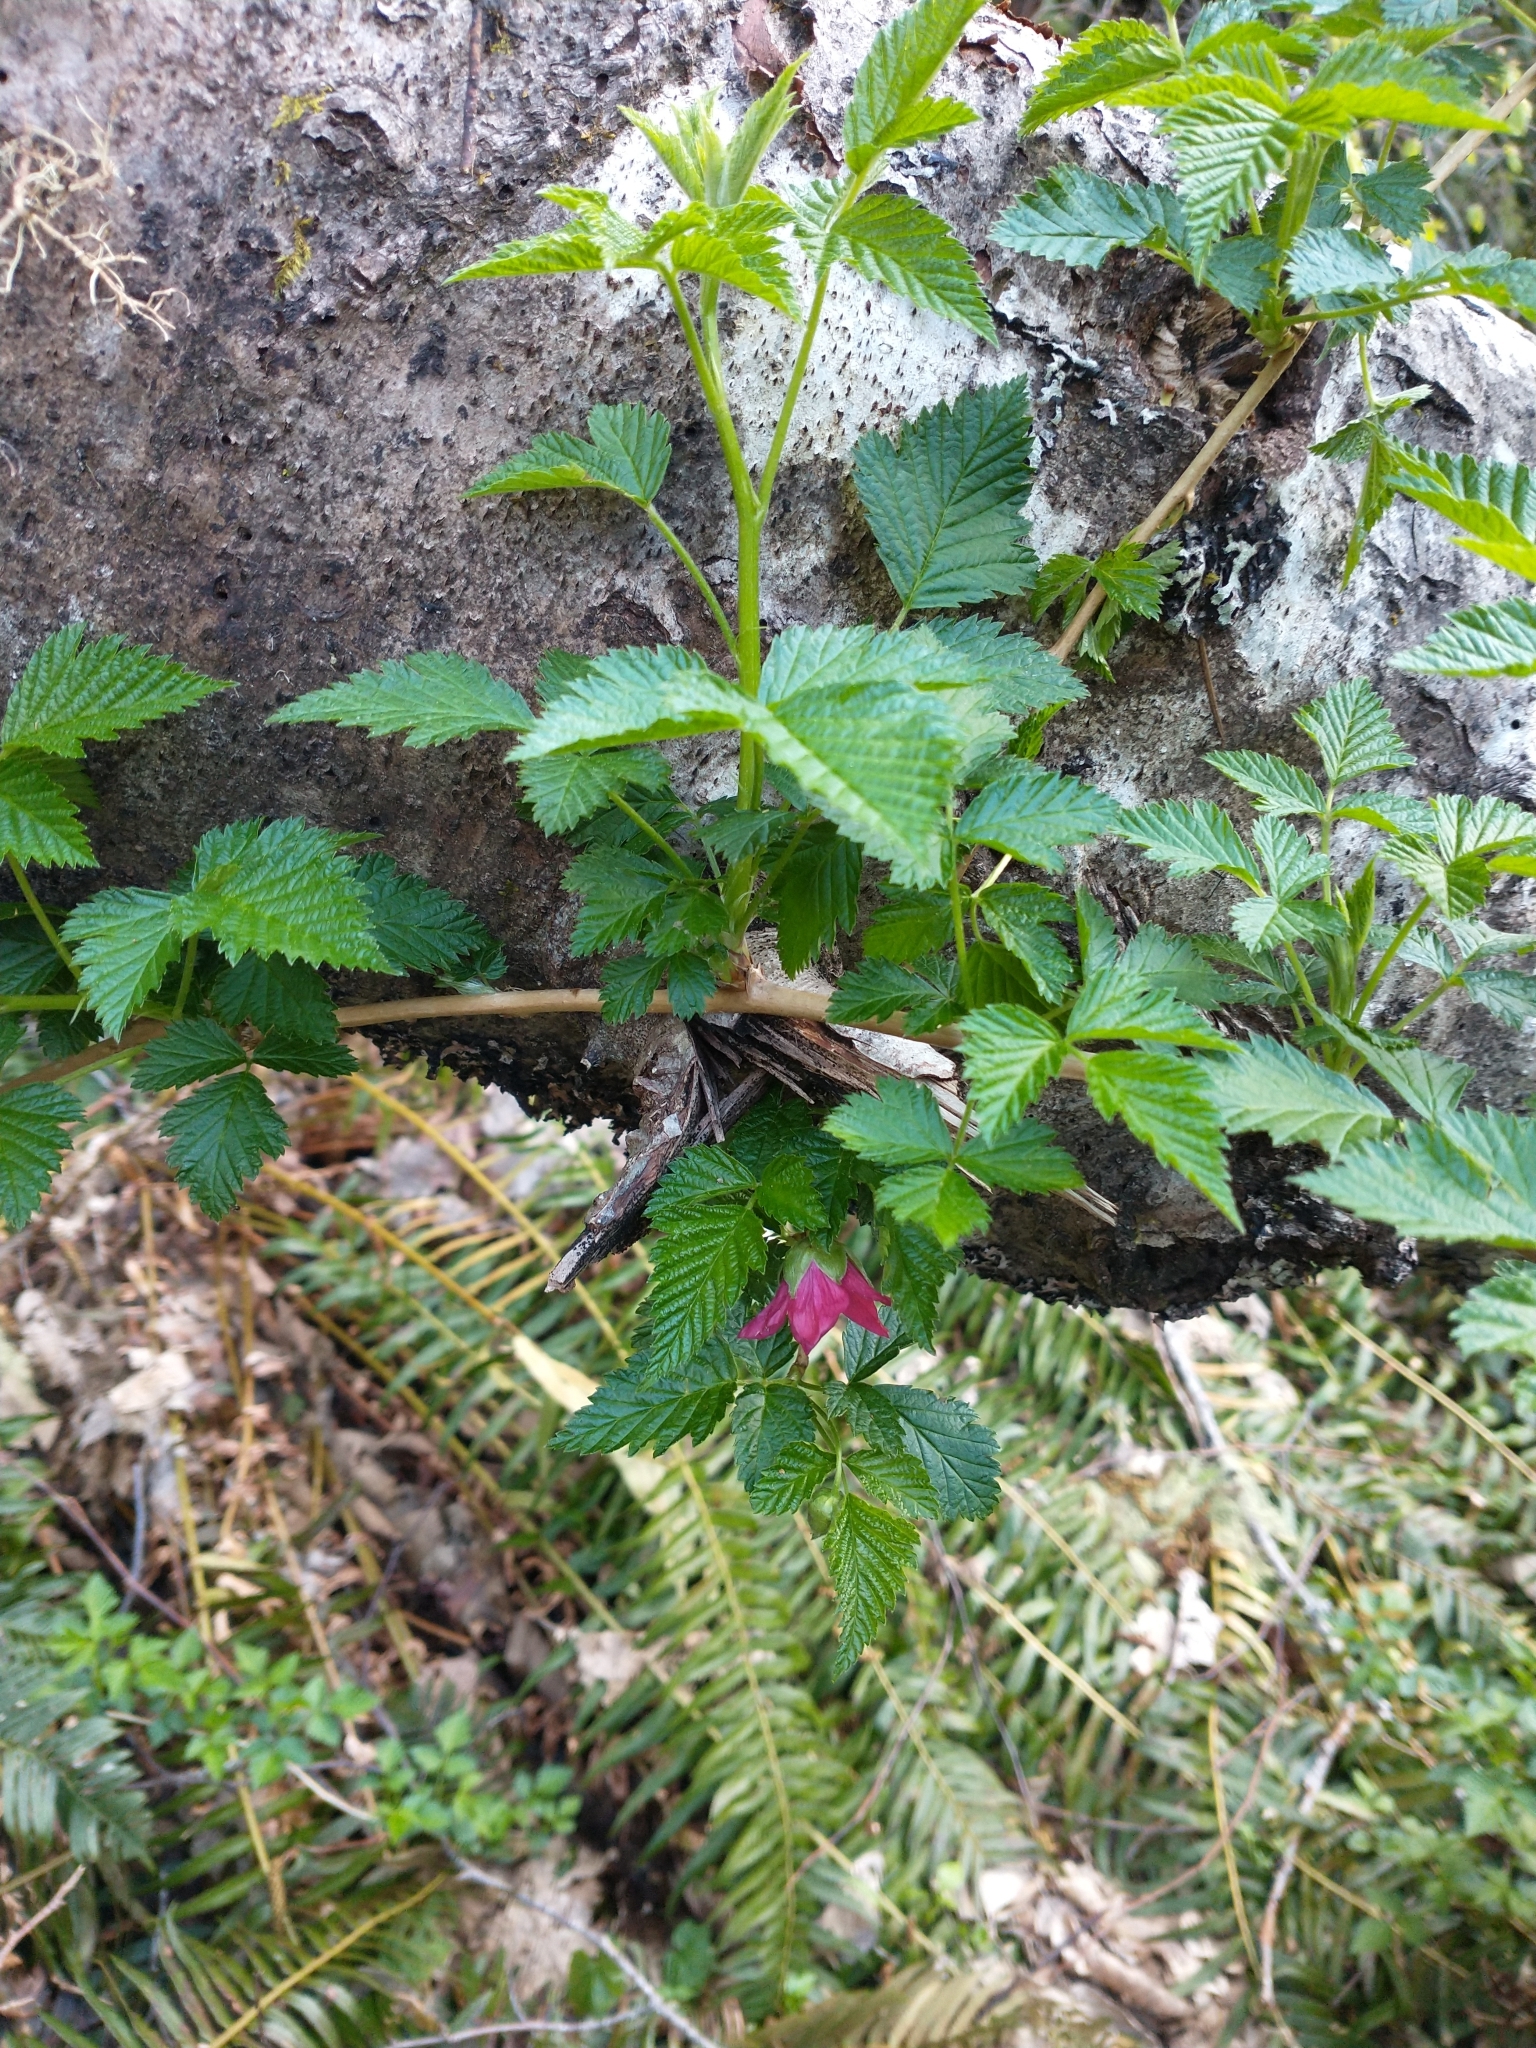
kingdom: Plantae
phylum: Tracheophyta
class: Magnoliopsida
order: Rosales
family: Rosaceae
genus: Rubus
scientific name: Rubus spectabilis
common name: Salmonberry
